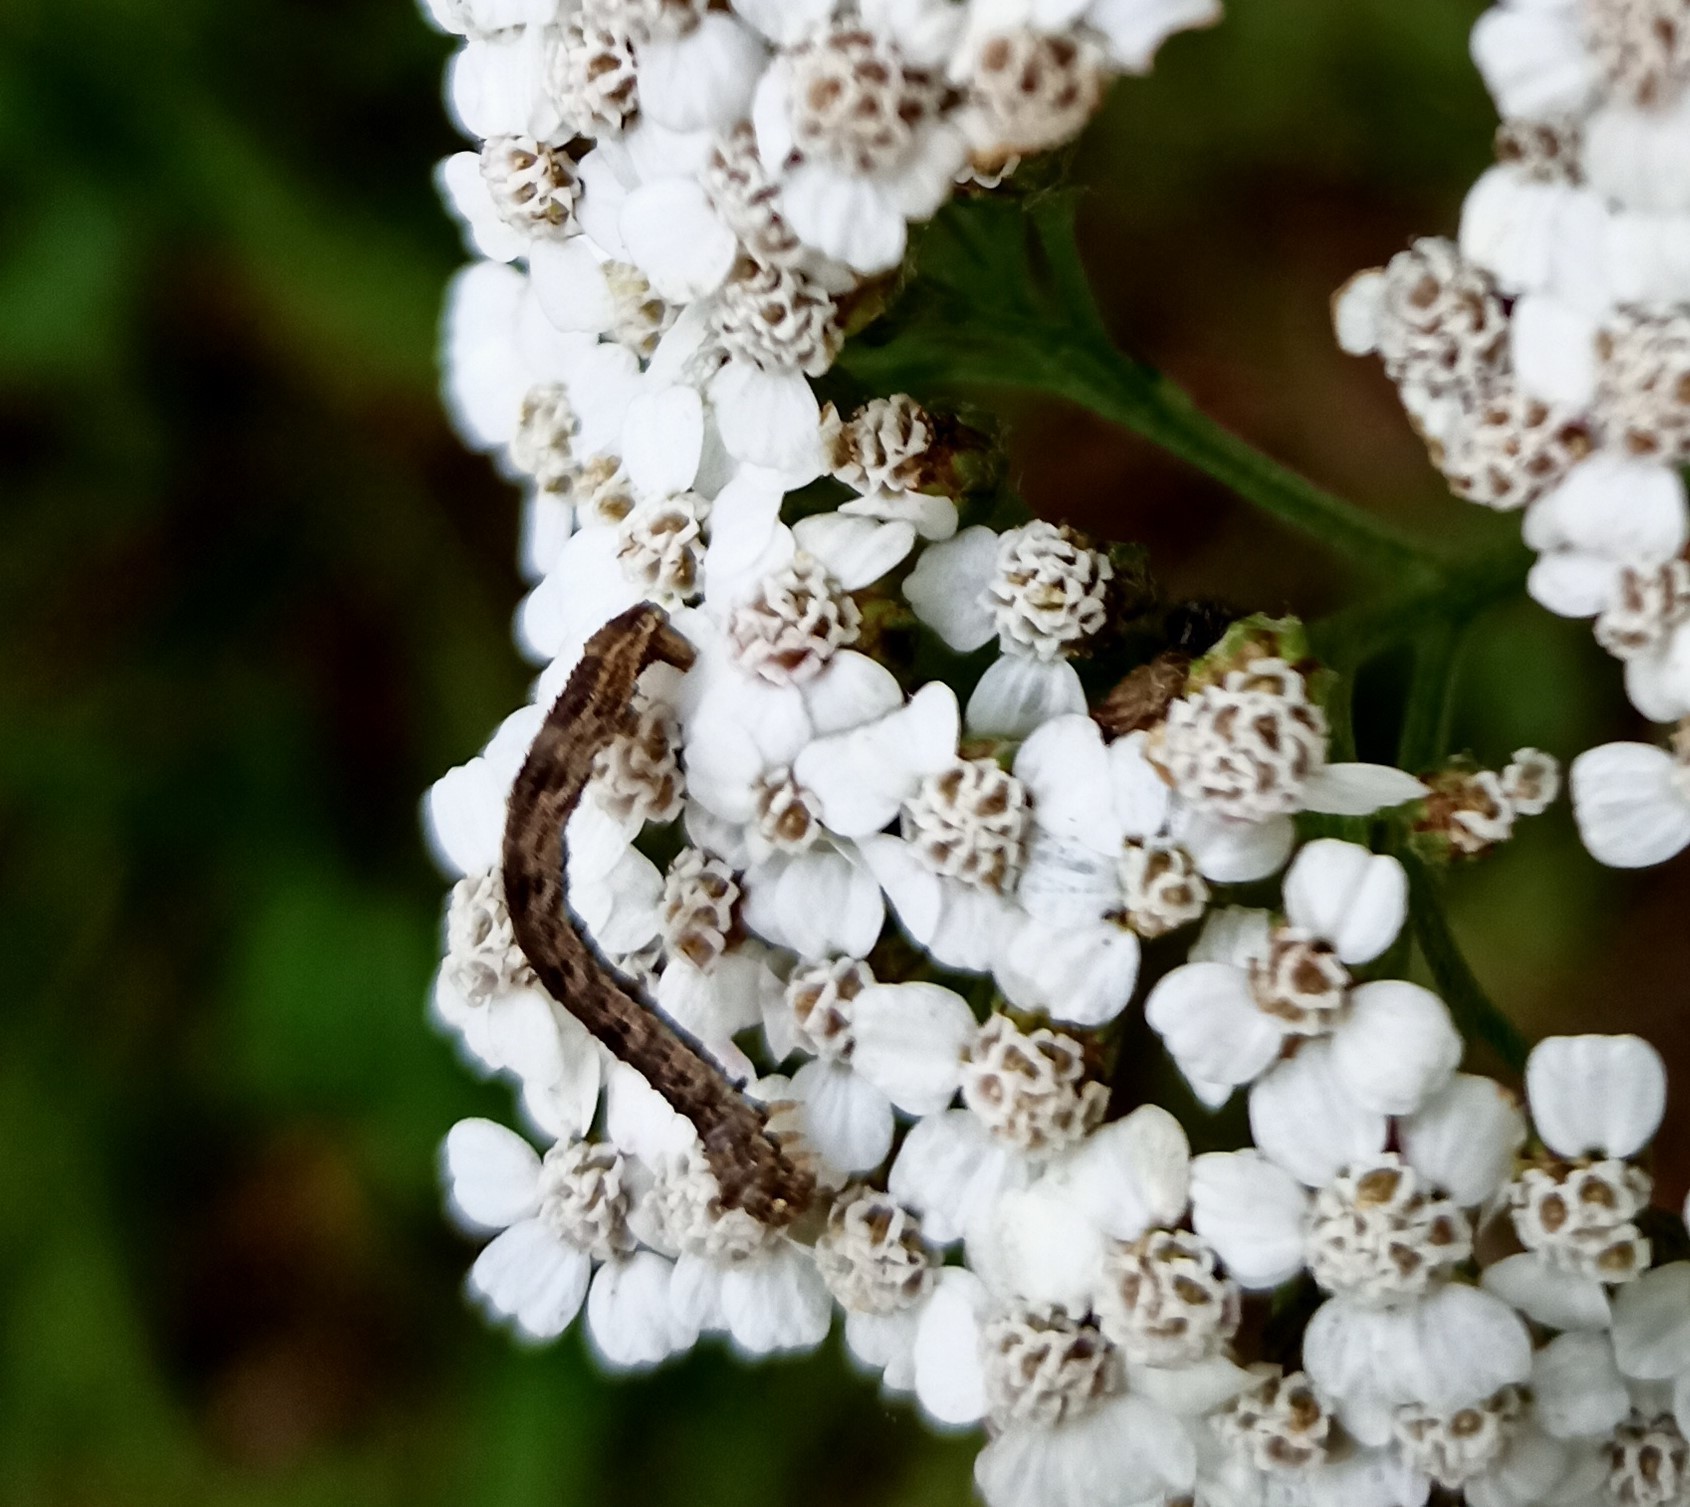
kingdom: Animalia
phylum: Arthropoda
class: Insecta
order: Lepidoptera
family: Geometridae
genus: Eupithecia
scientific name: Eupithecia icterata
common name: Tawny speckled pug
